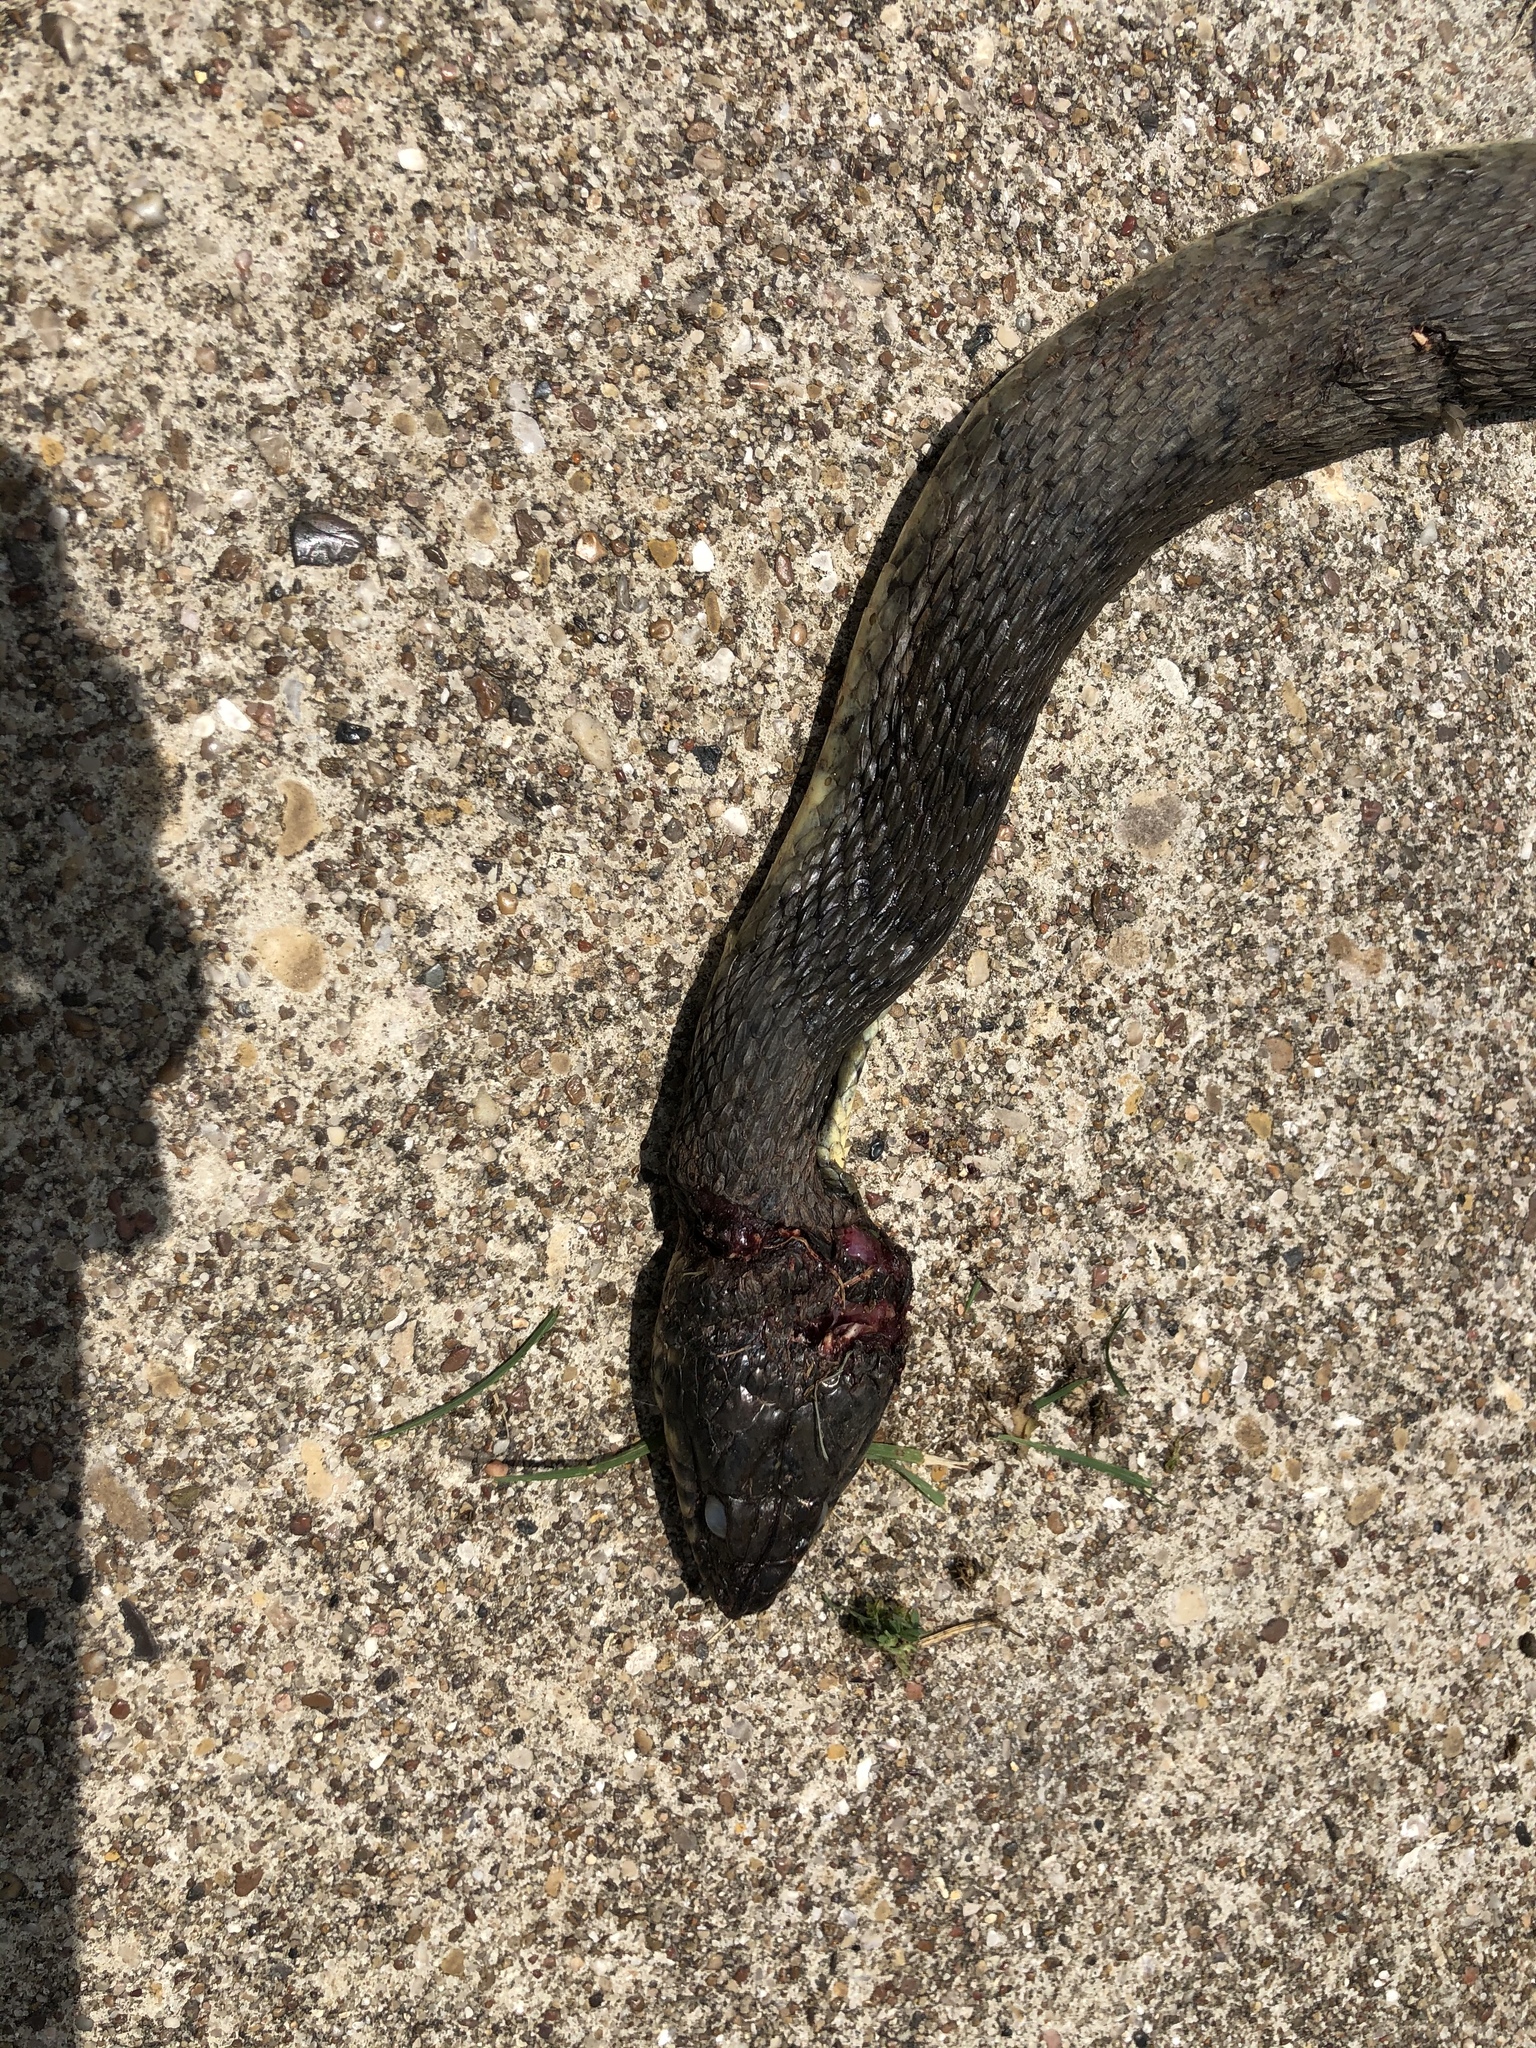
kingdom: Animalia
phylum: Chordata
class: Squamata
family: Colubridae
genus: Nerodia
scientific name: Nerodia erythrogaster
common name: Plainbelly water snake
